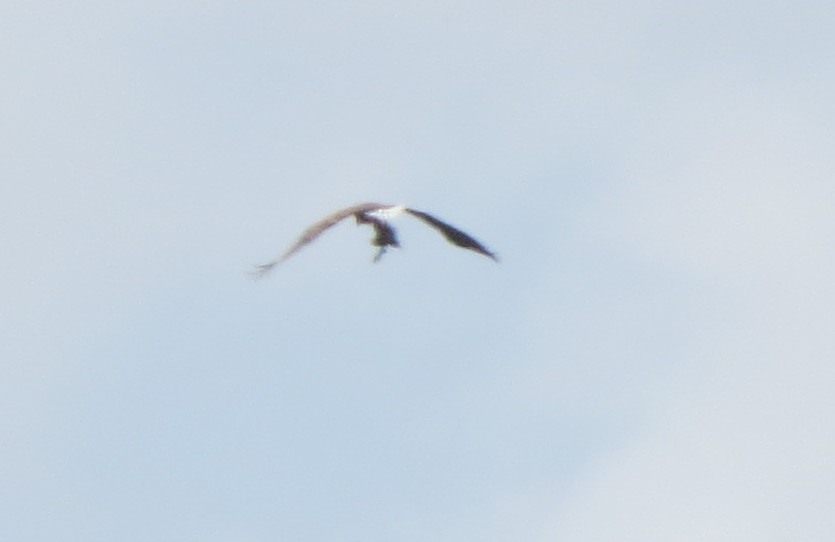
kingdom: Animalia
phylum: Chordata
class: Aves
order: Accipitriformes
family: Pandionidae
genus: Pandion
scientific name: Pandion haliaetus
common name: Osprey
